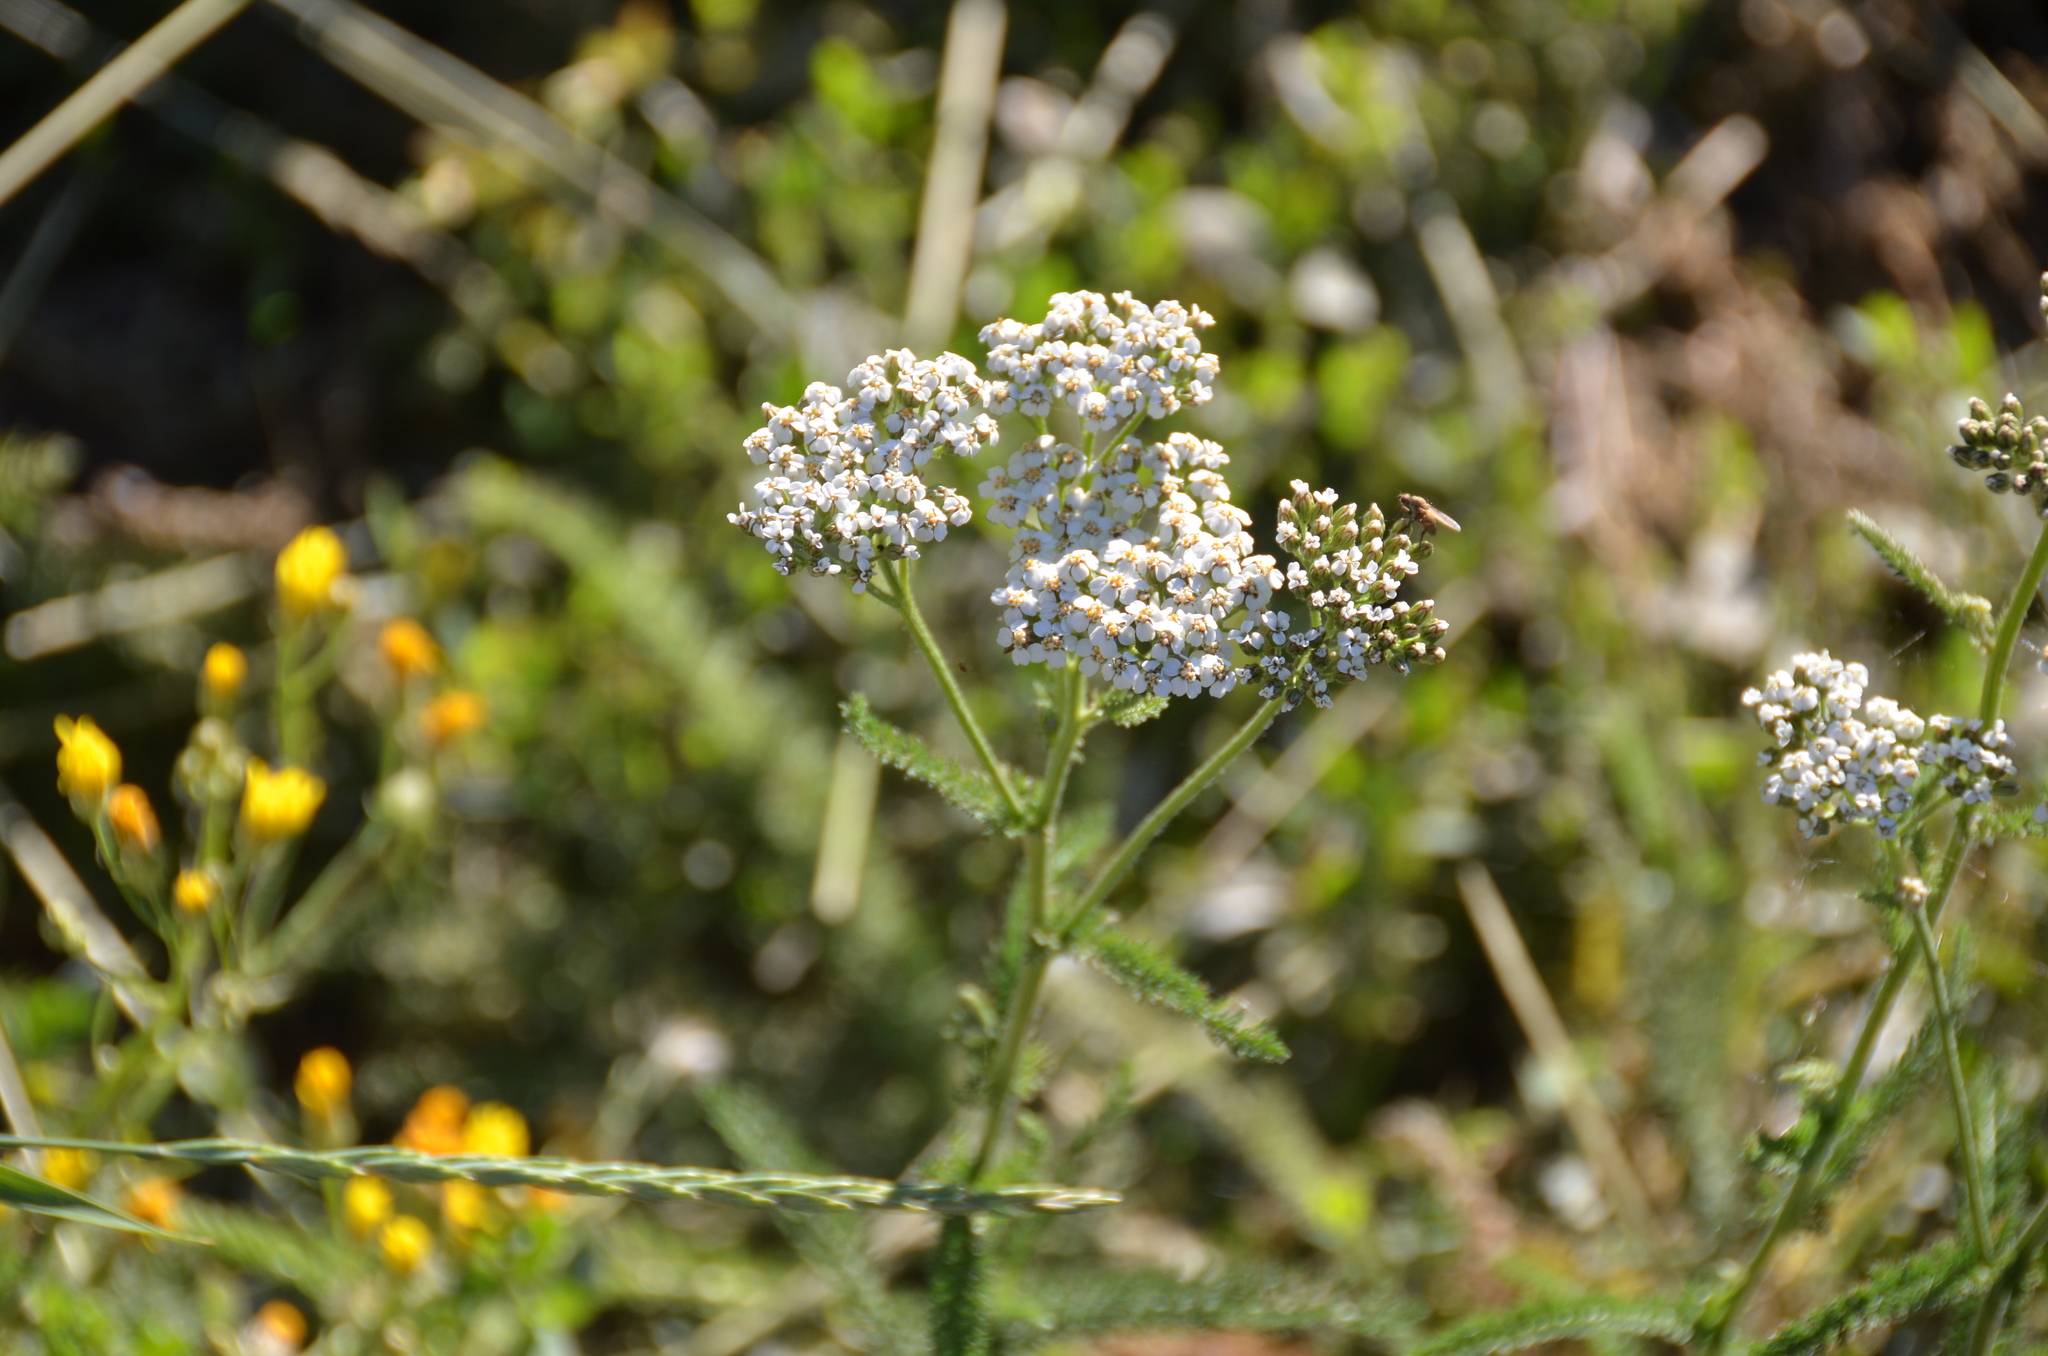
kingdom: Plantae
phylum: Tracheophyta
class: Magnoliopsida
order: Asterales
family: Asteraceae
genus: Achillea
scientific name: Achillea millefolium
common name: Yarrow
